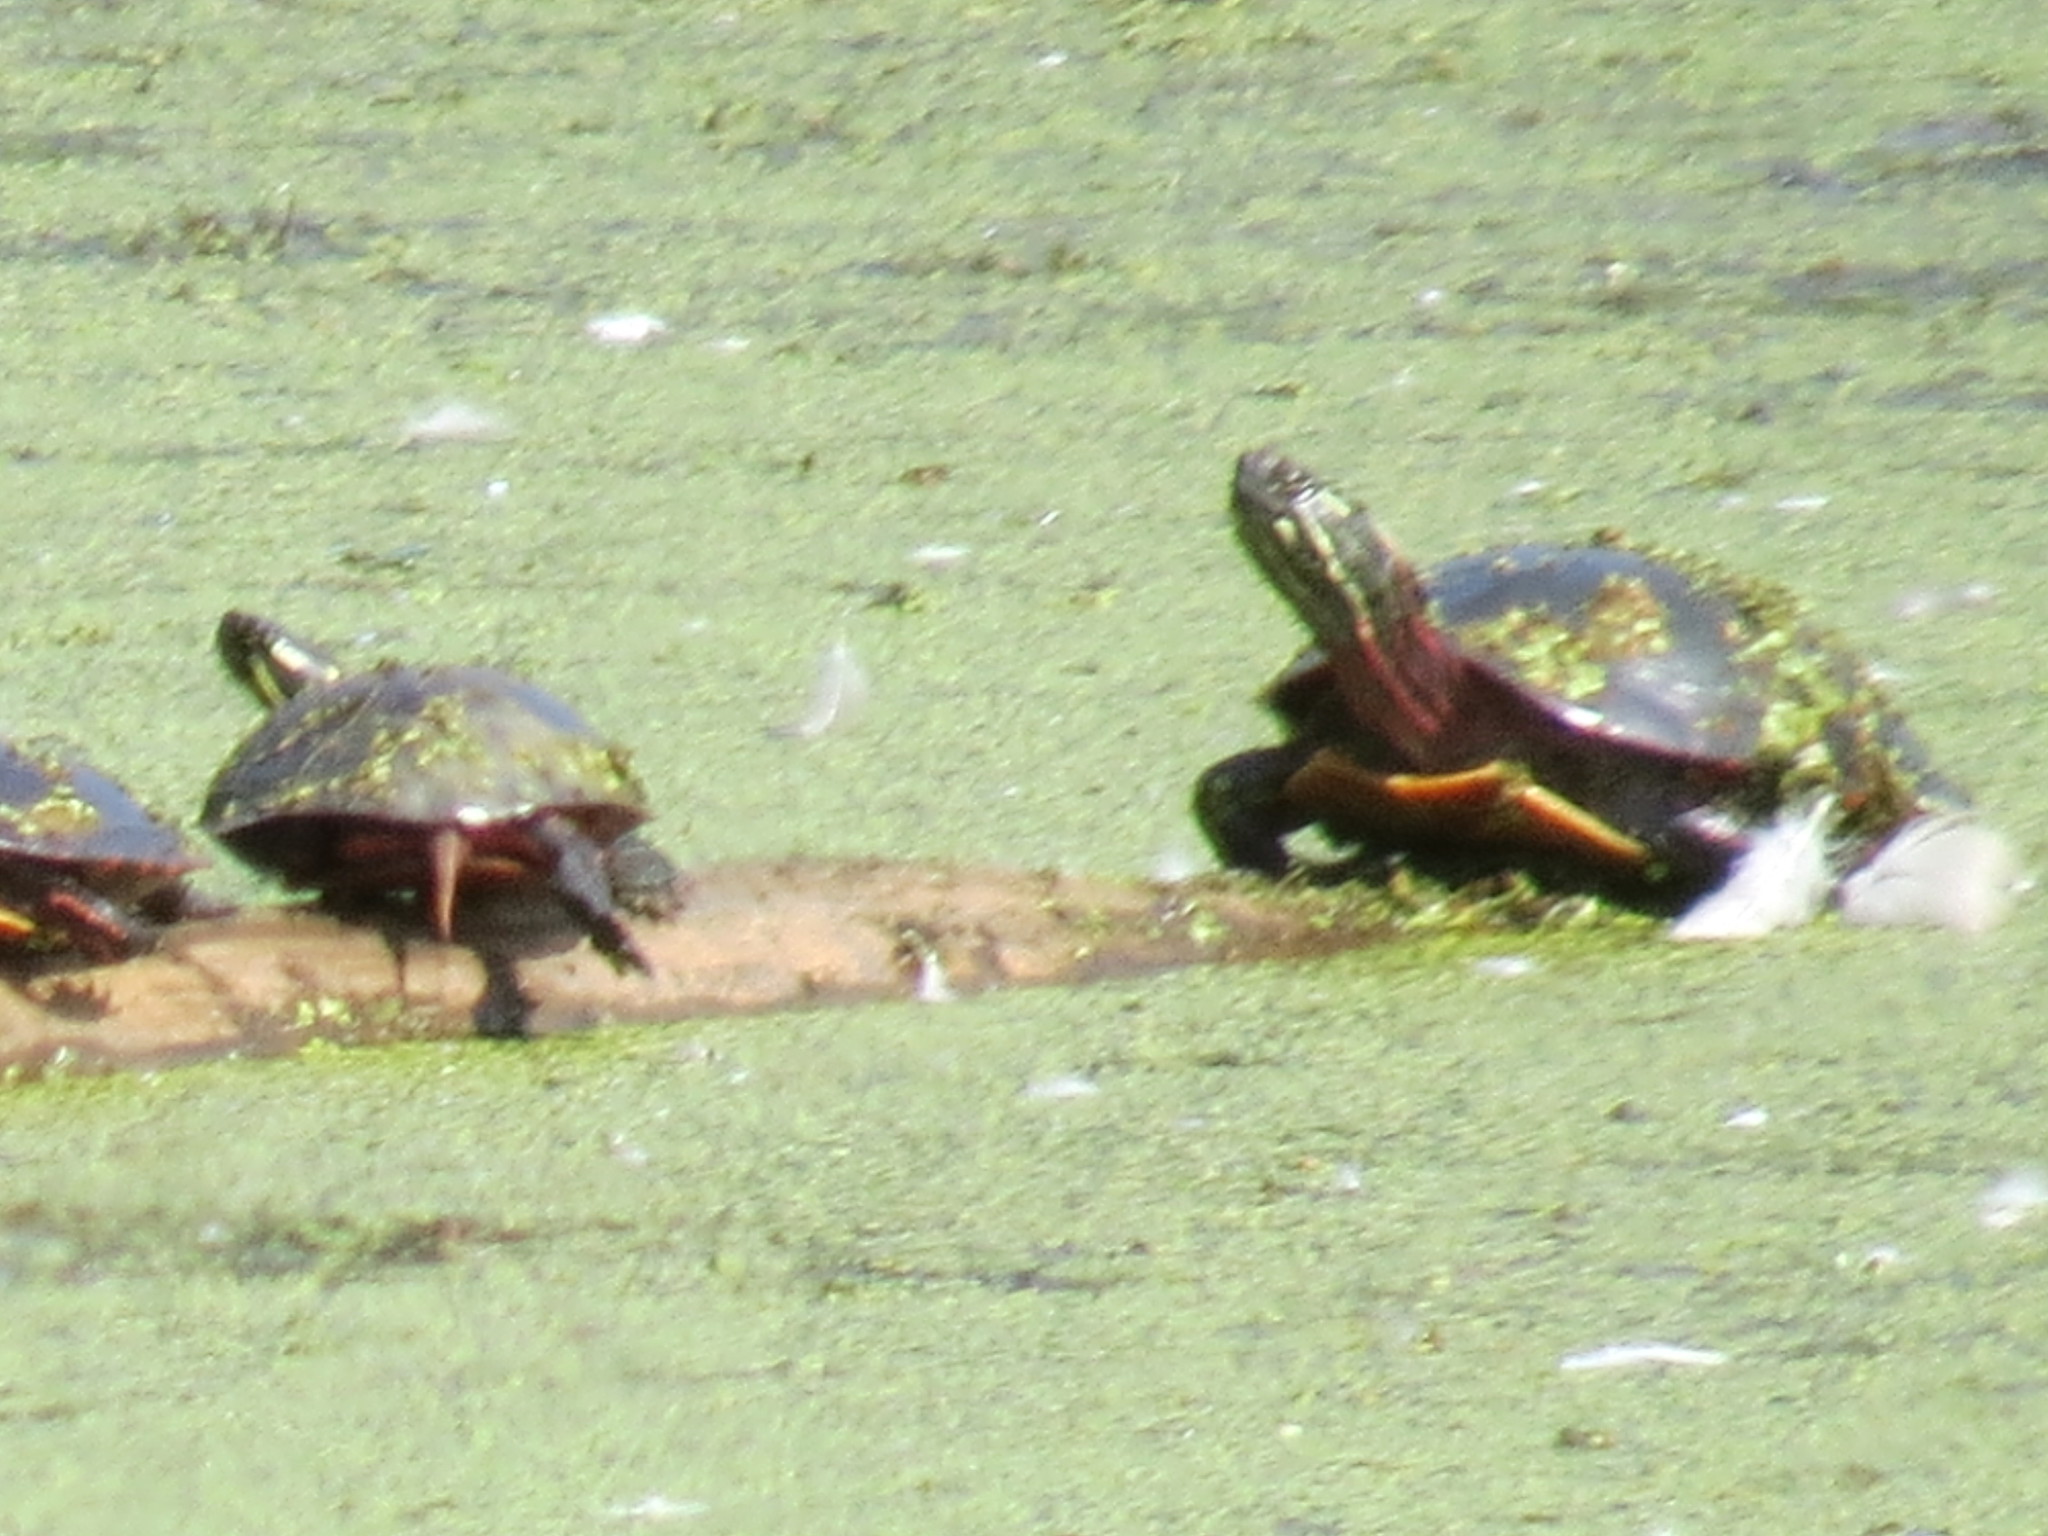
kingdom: Animalia
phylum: Chordata
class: Testudines
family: Emydidae
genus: Chrysemys
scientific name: Chrysemys picta
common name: Painted turtle
